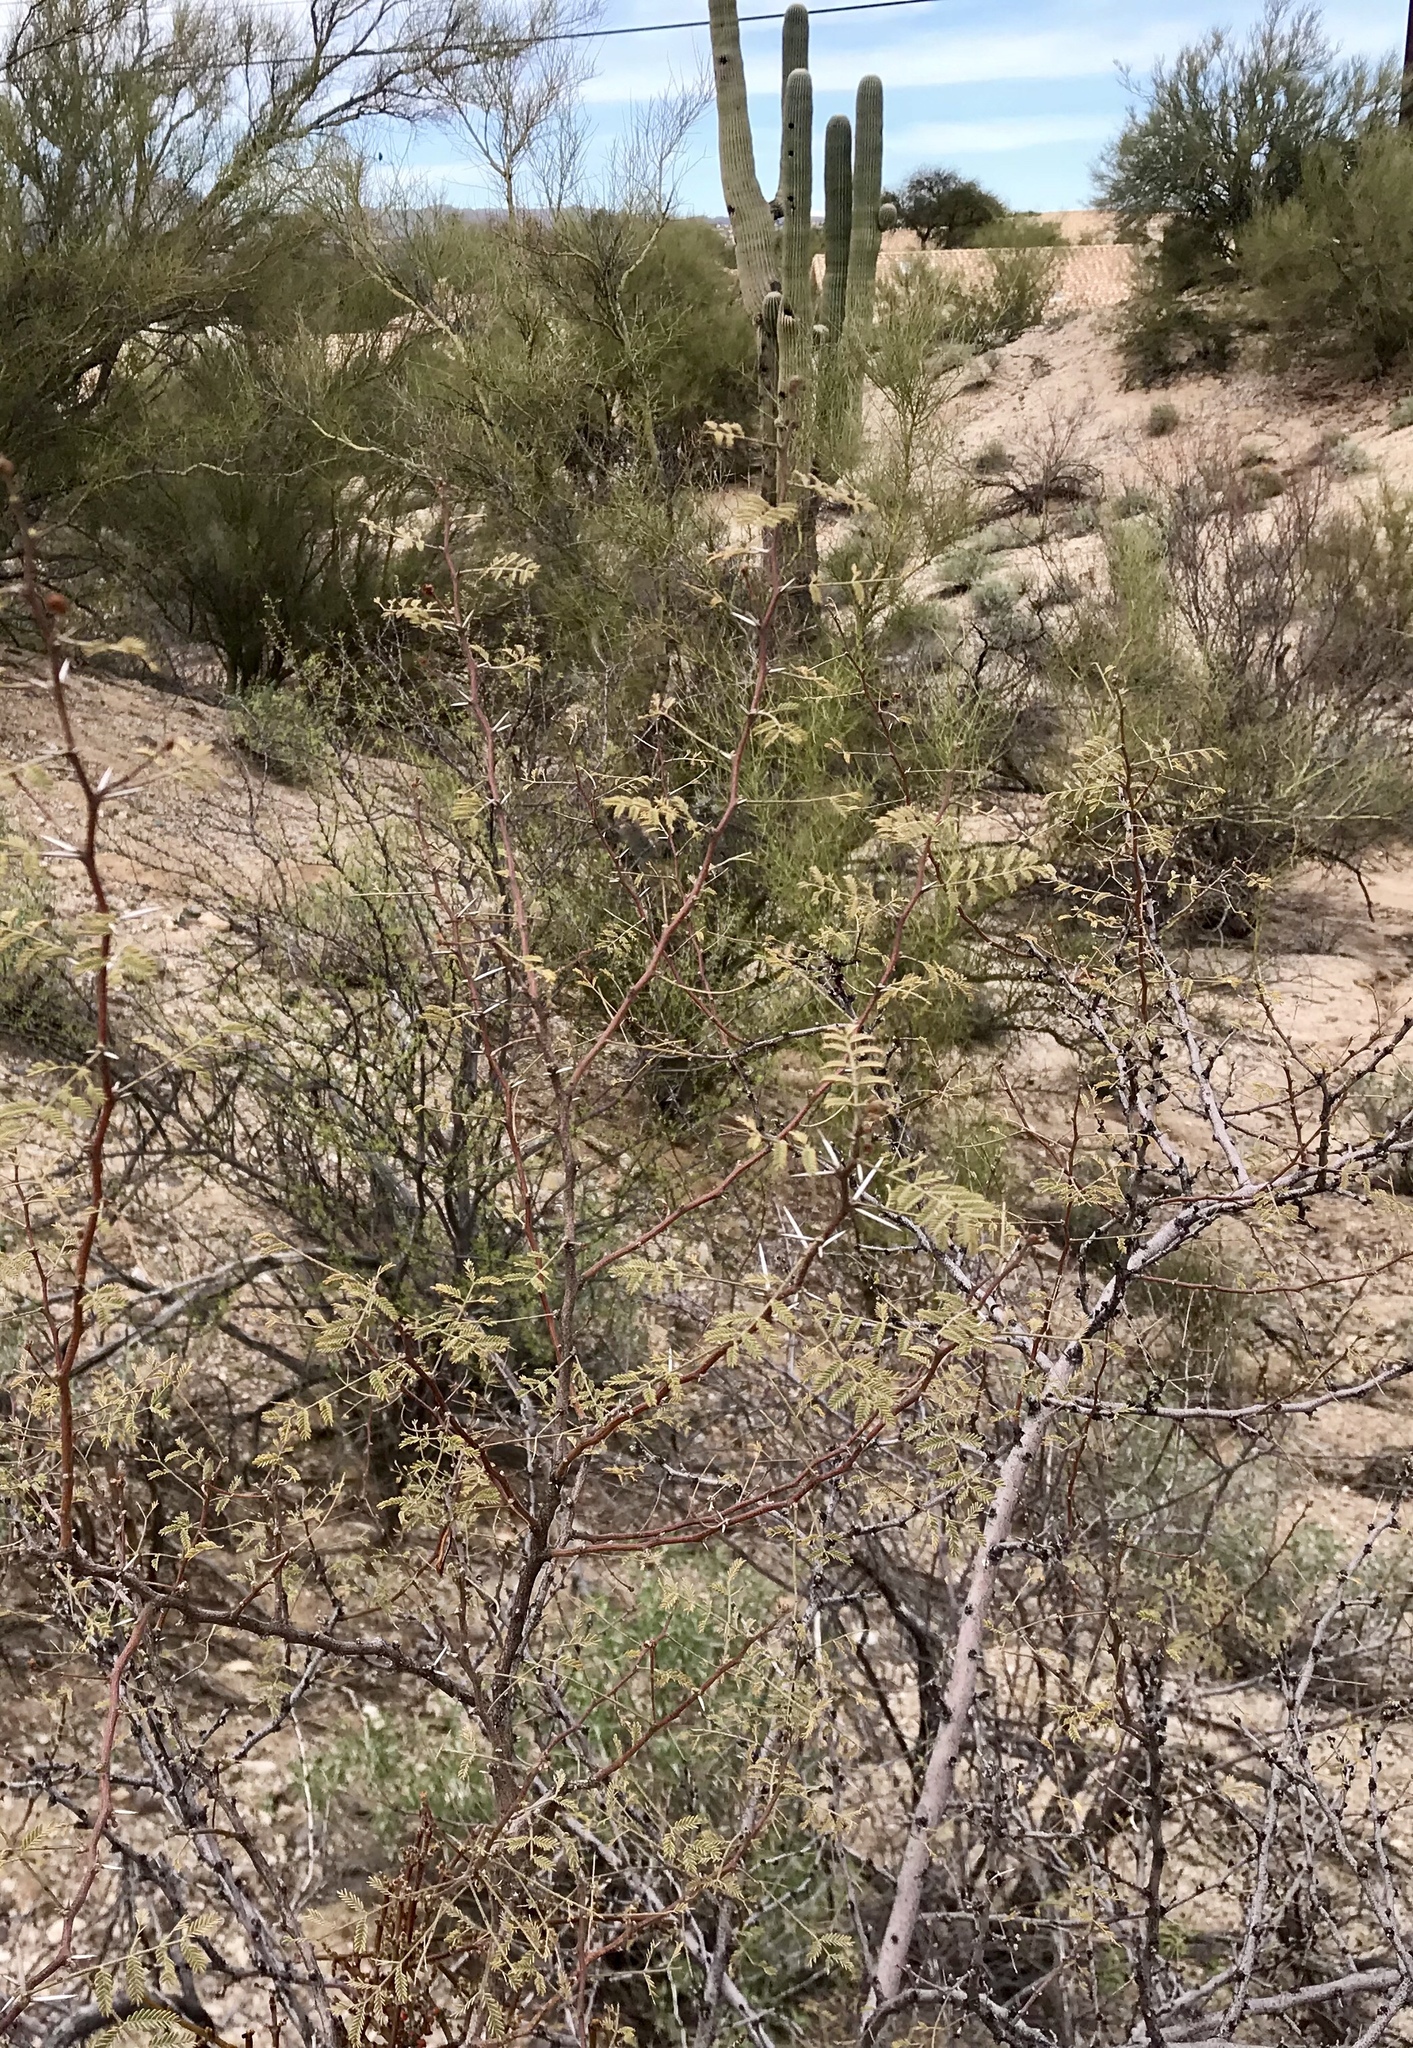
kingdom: Plantae
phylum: Tracheophyta
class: Magnoliopsida
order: Fabales
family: Fabaceae
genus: Vachellia
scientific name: Vachellia constricta
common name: Mescat acacia
